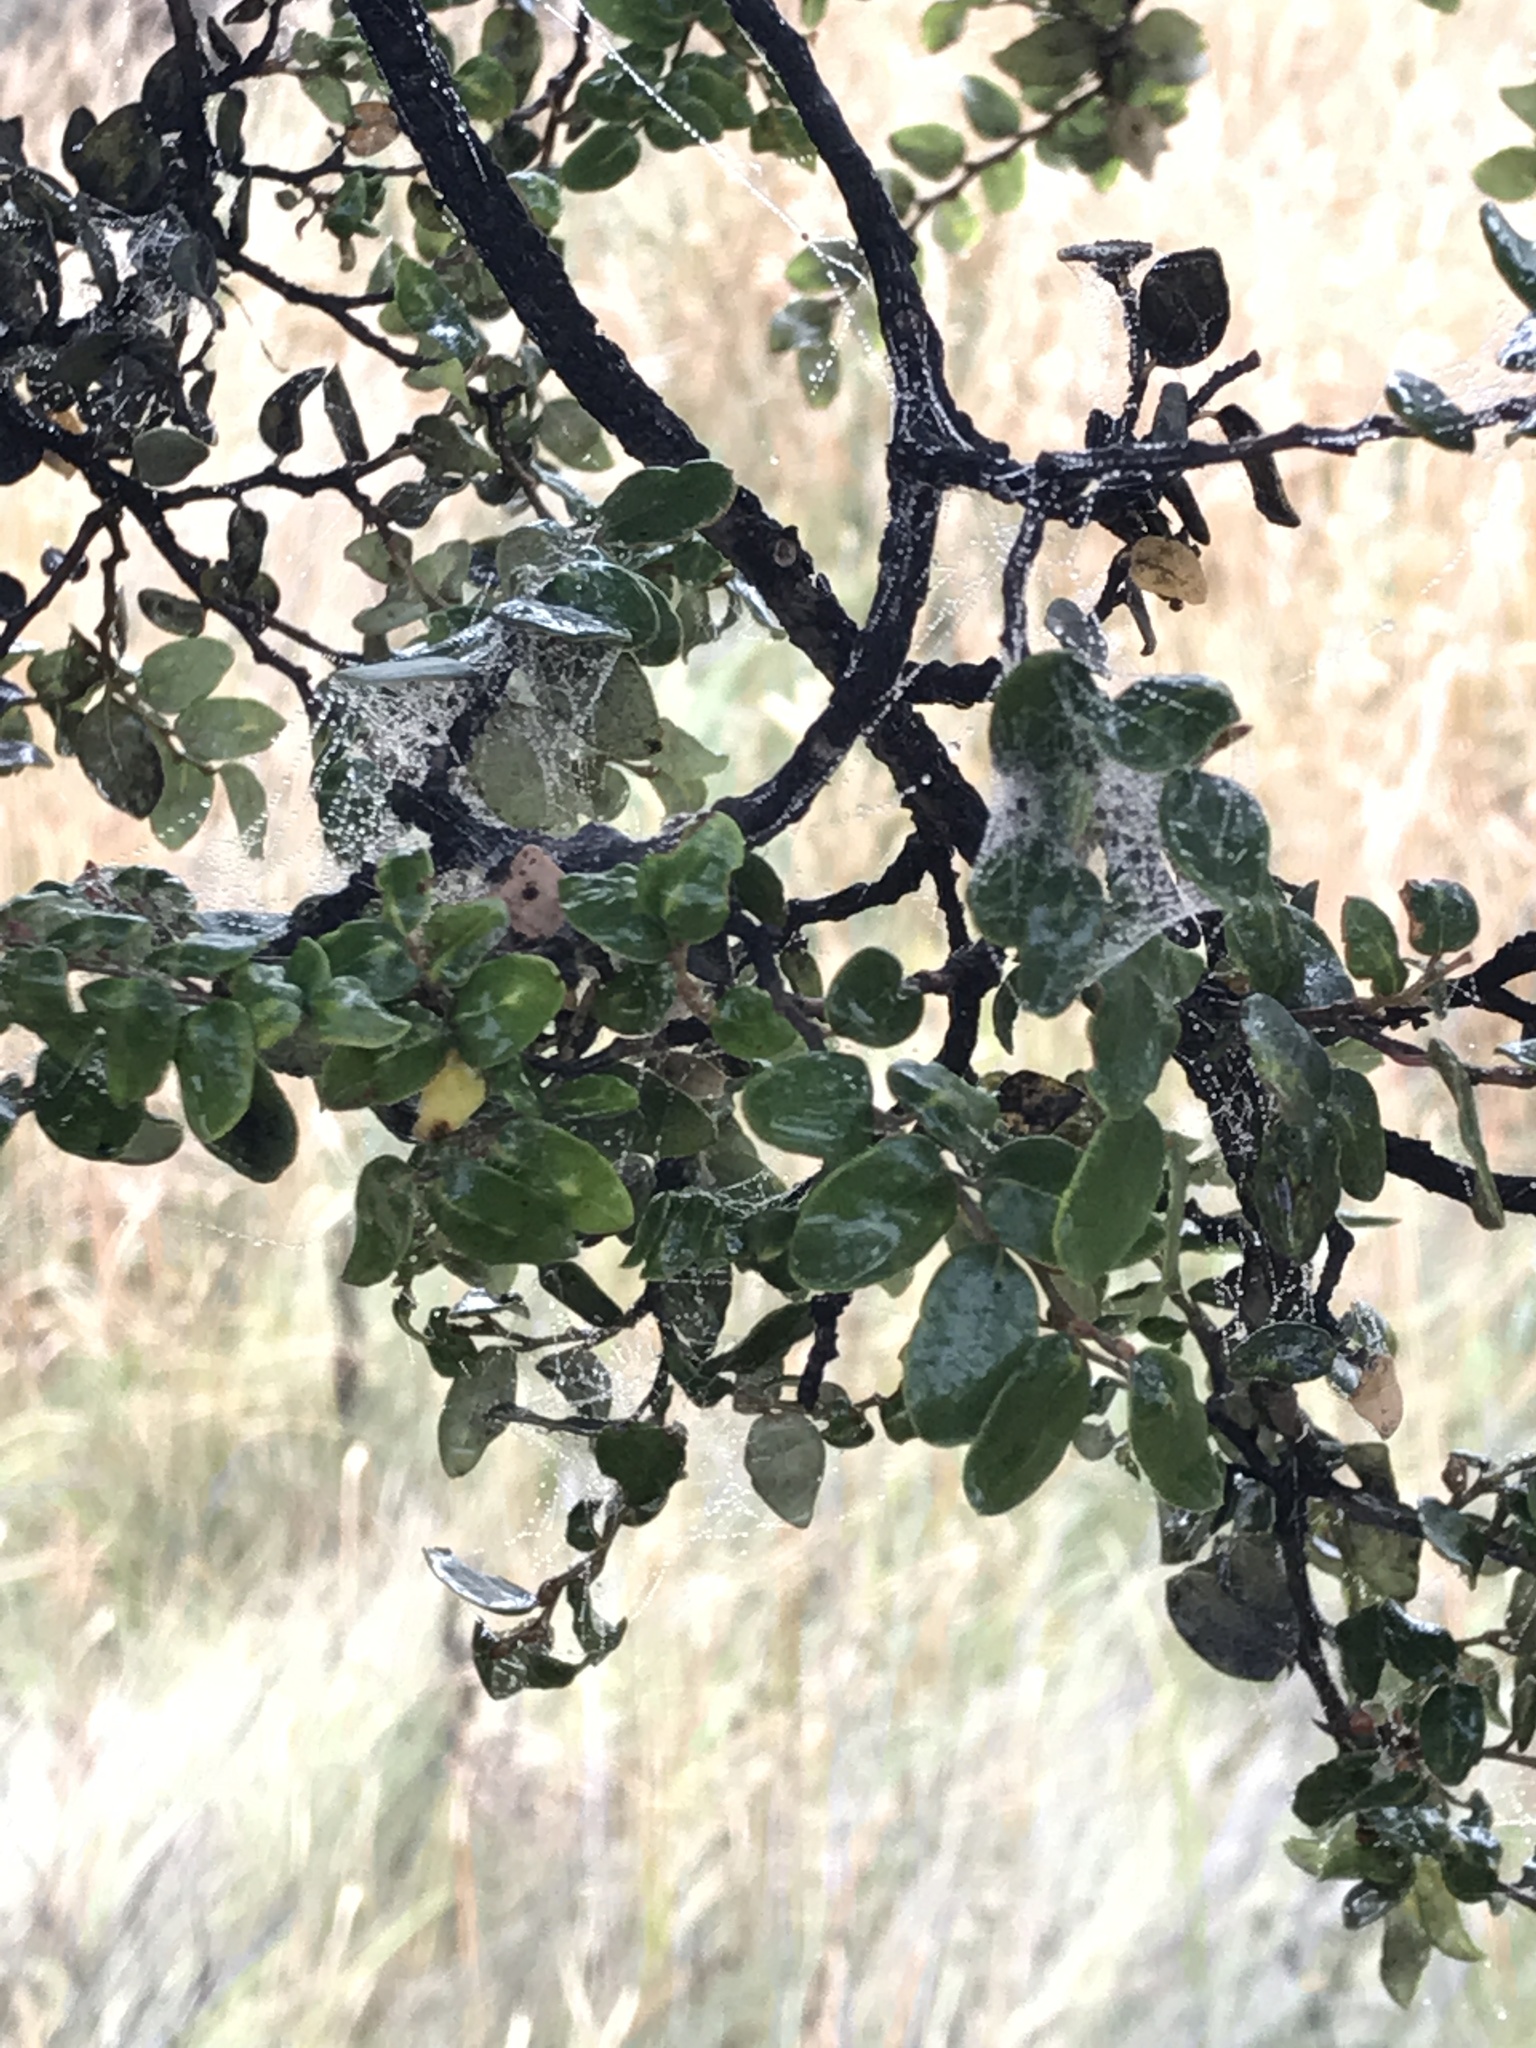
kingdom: Plantae
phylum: Tracheophyta
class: Magnoliopsida
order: Fagales
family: Nothofagaceae
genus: Nothofagus
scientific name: Nothofagus cliffortioides
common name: Mountain beech
